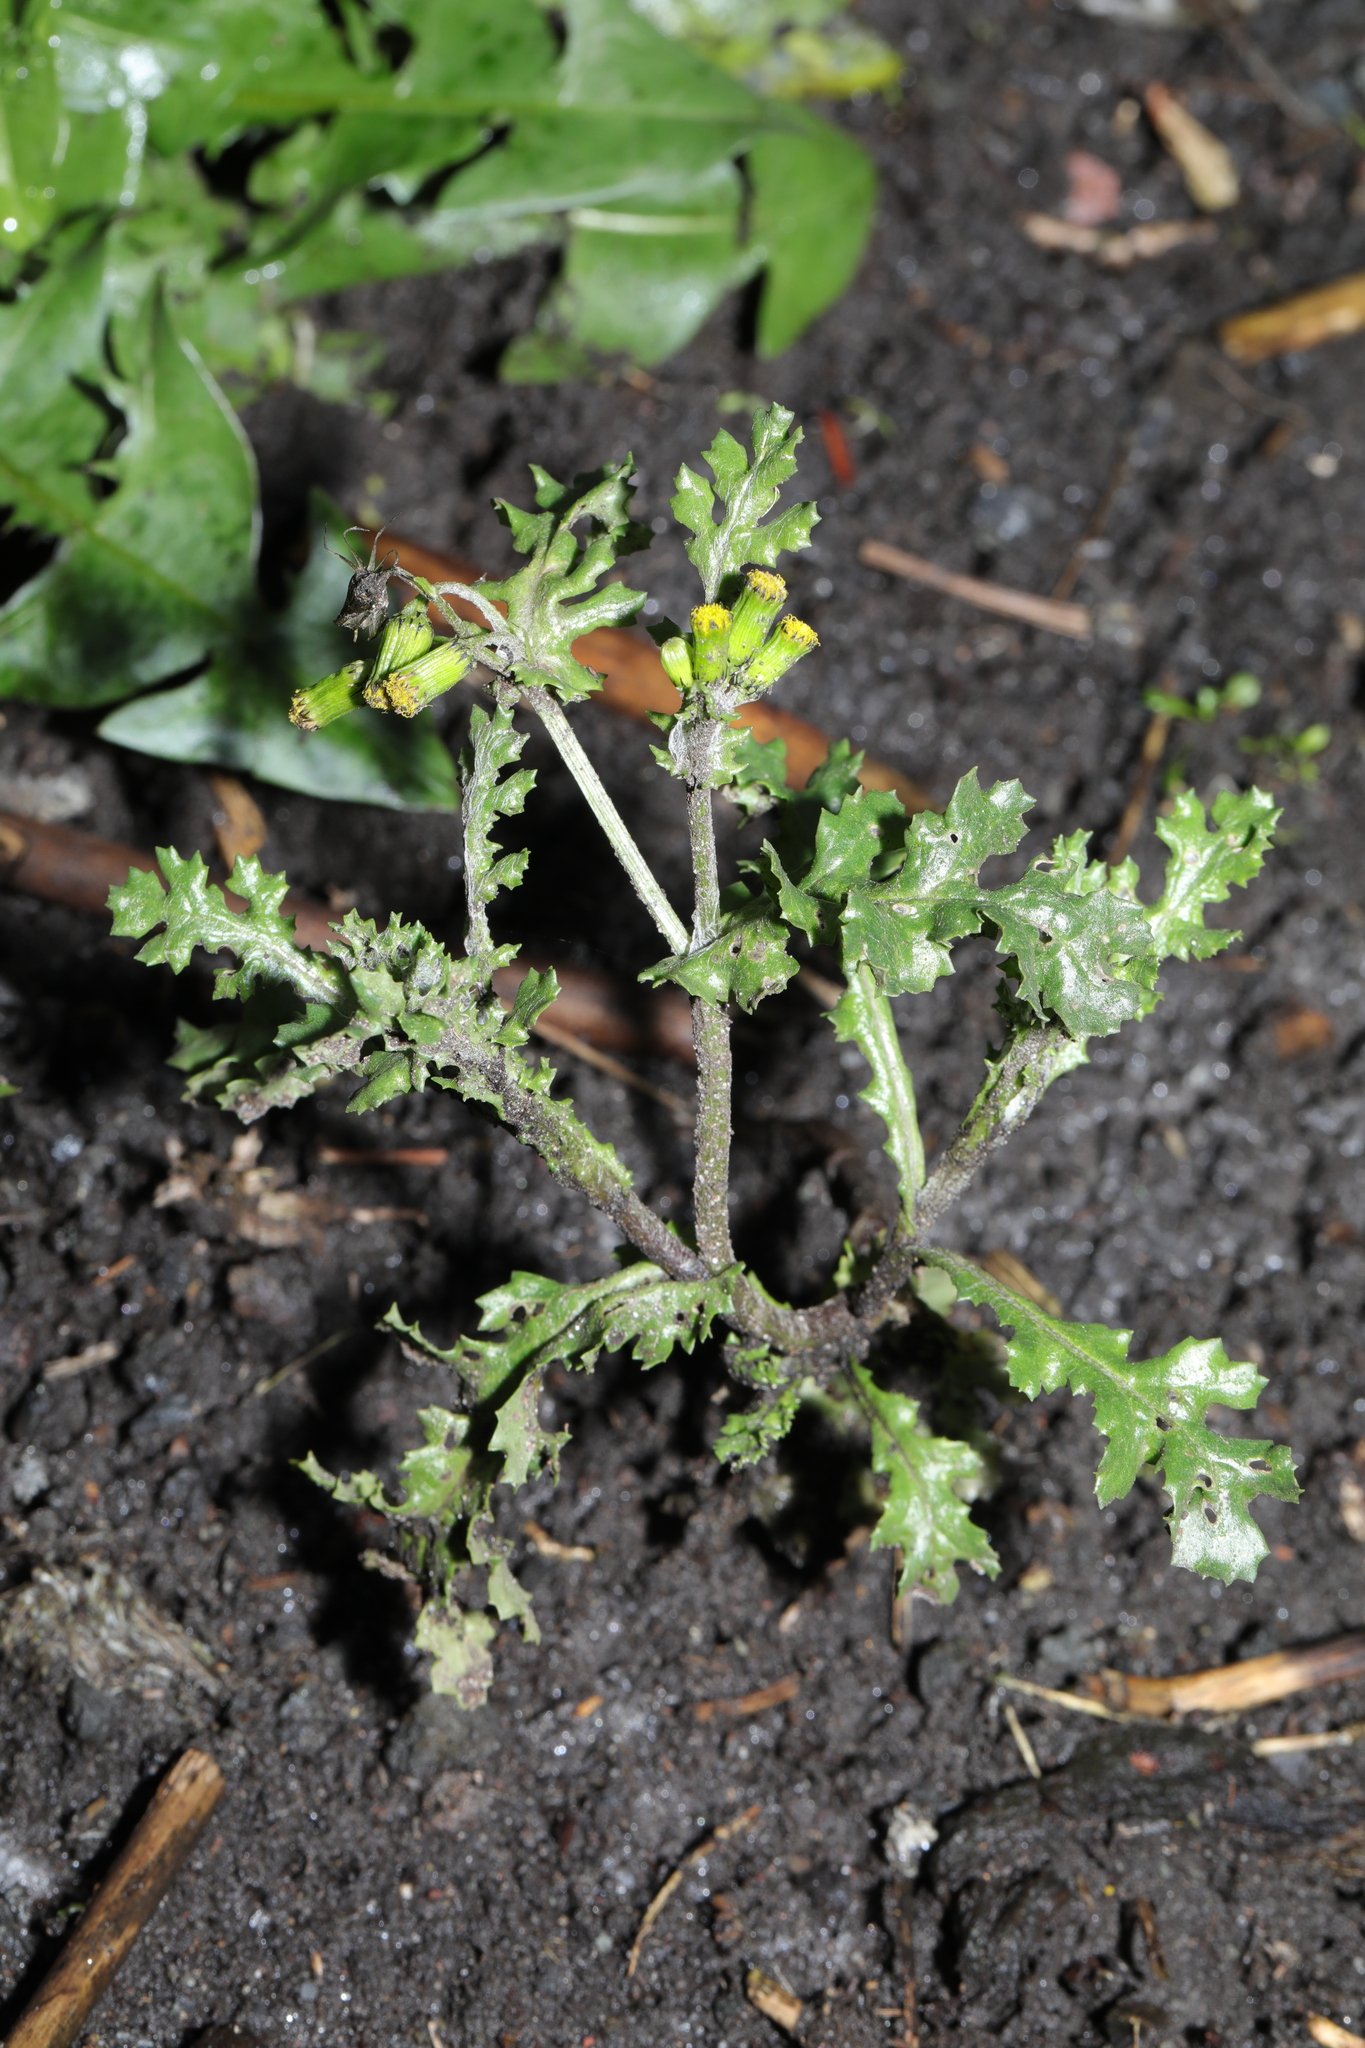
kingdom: Plantae
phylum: Tracheophyta
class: Magnoliopsida
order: Asterales
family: Asteraceae
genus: Senecio
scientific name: Senecio vulgaris
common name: Old-man-in-the-spring
